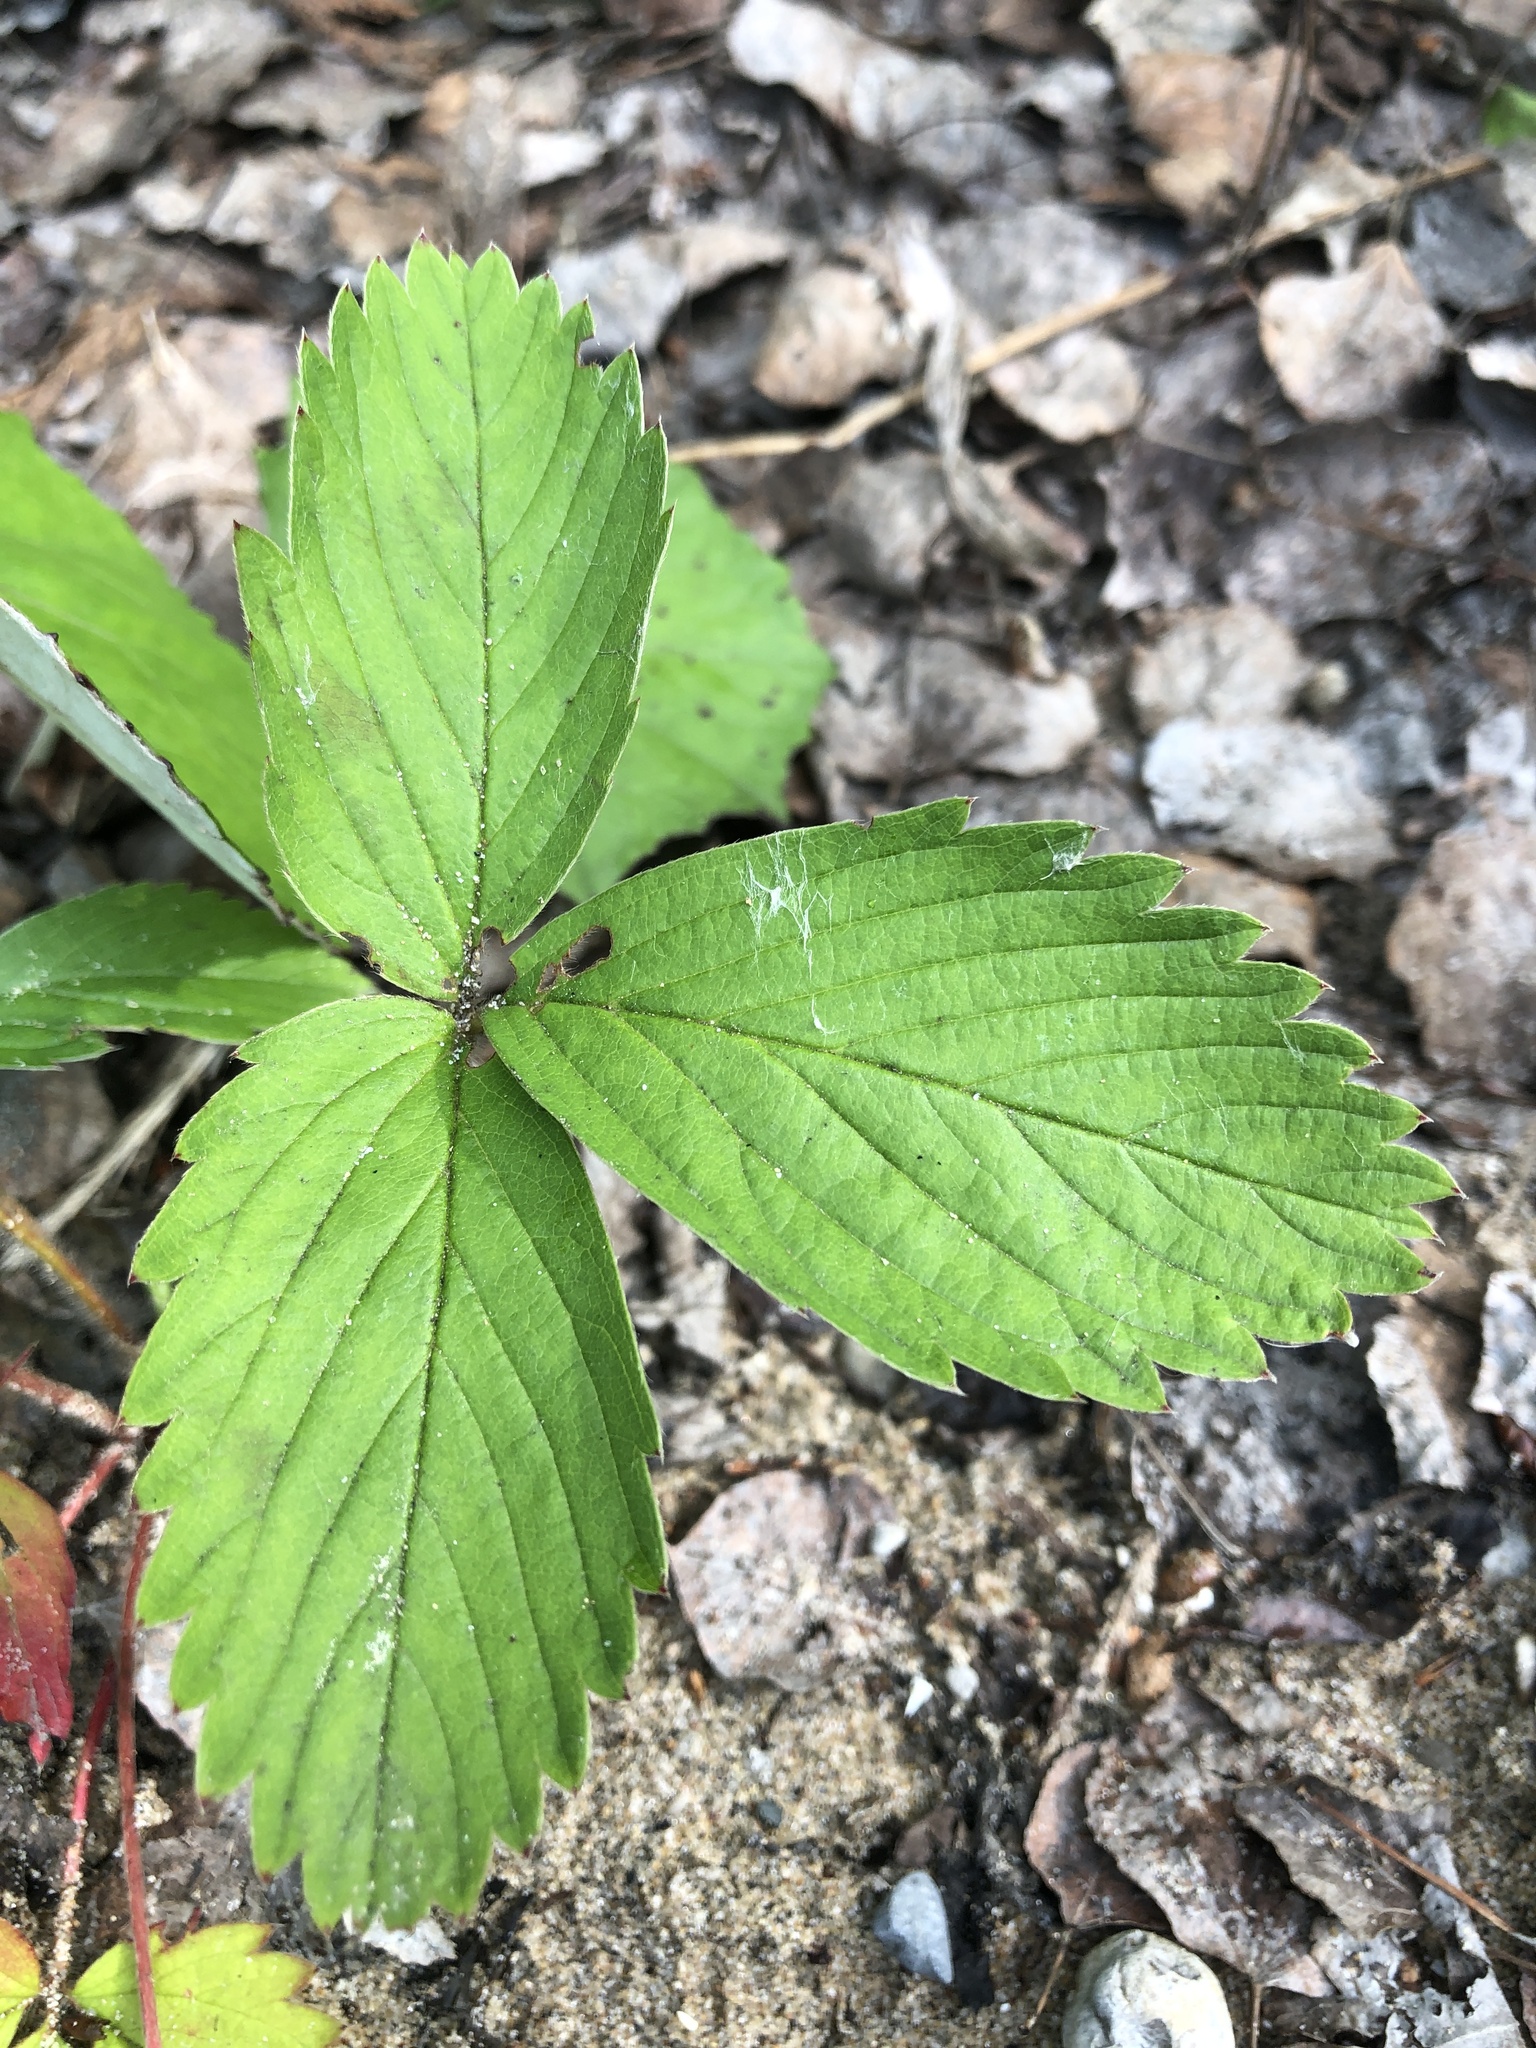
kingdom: Plantae
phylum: Tracheophyta
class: Magnoliopsida
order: Rosales
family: Rosaceae
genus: Fragaria
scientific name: Fragaria virginiana
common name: Thickleaved wild strawberry
